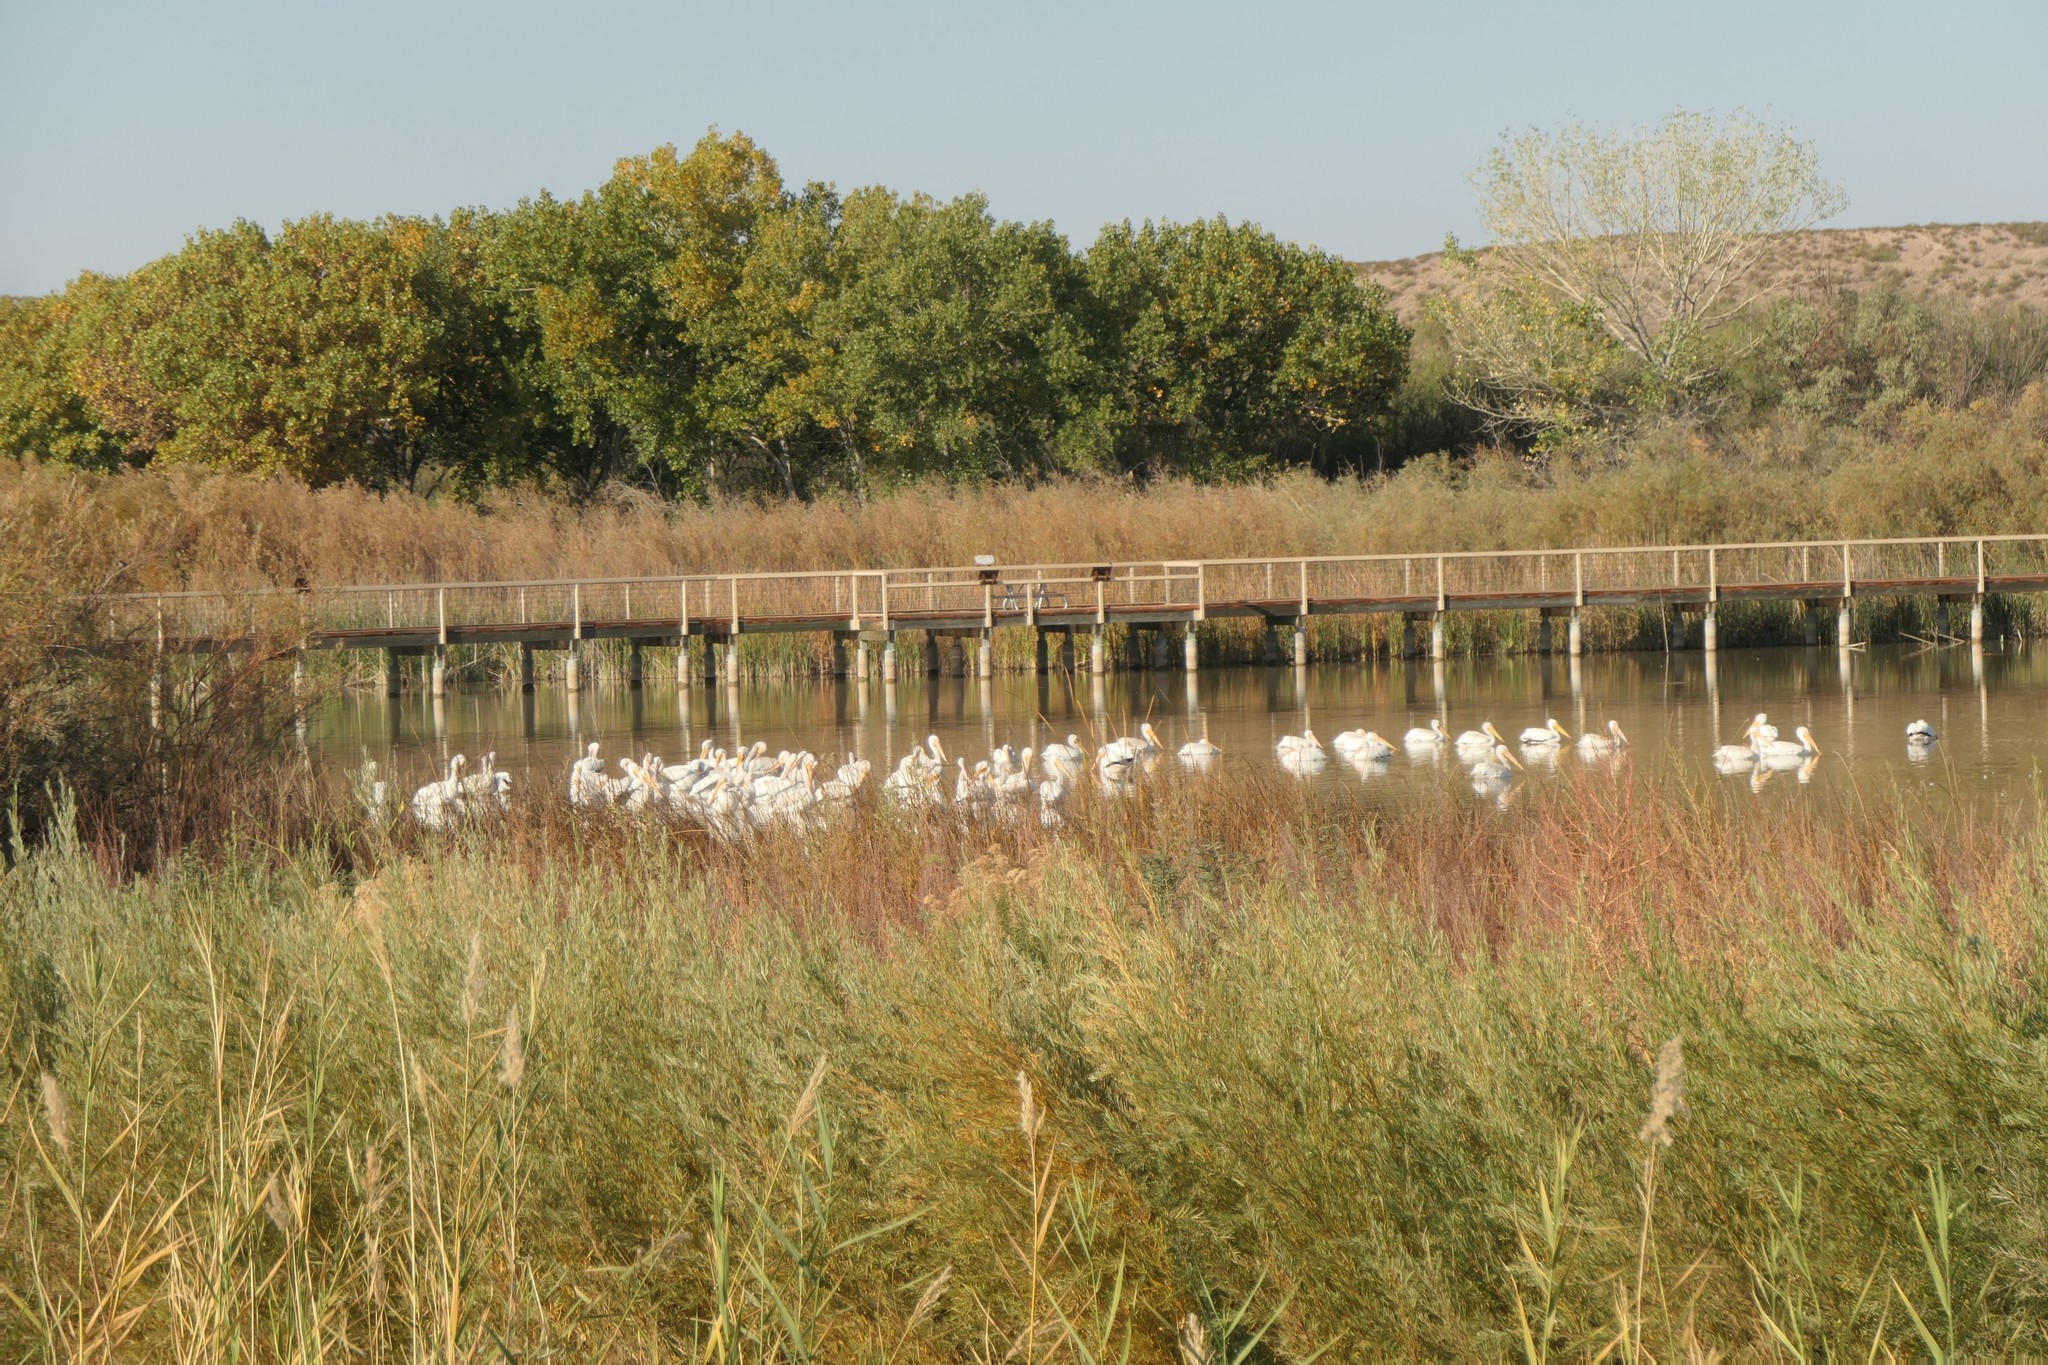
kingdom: Animalia
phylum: Chordata
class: Aves
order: Pelecaniformes
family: Pelecanidae
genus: Pelecanus
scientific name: Pelecanus erythrorhynchos
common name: American white pelican
